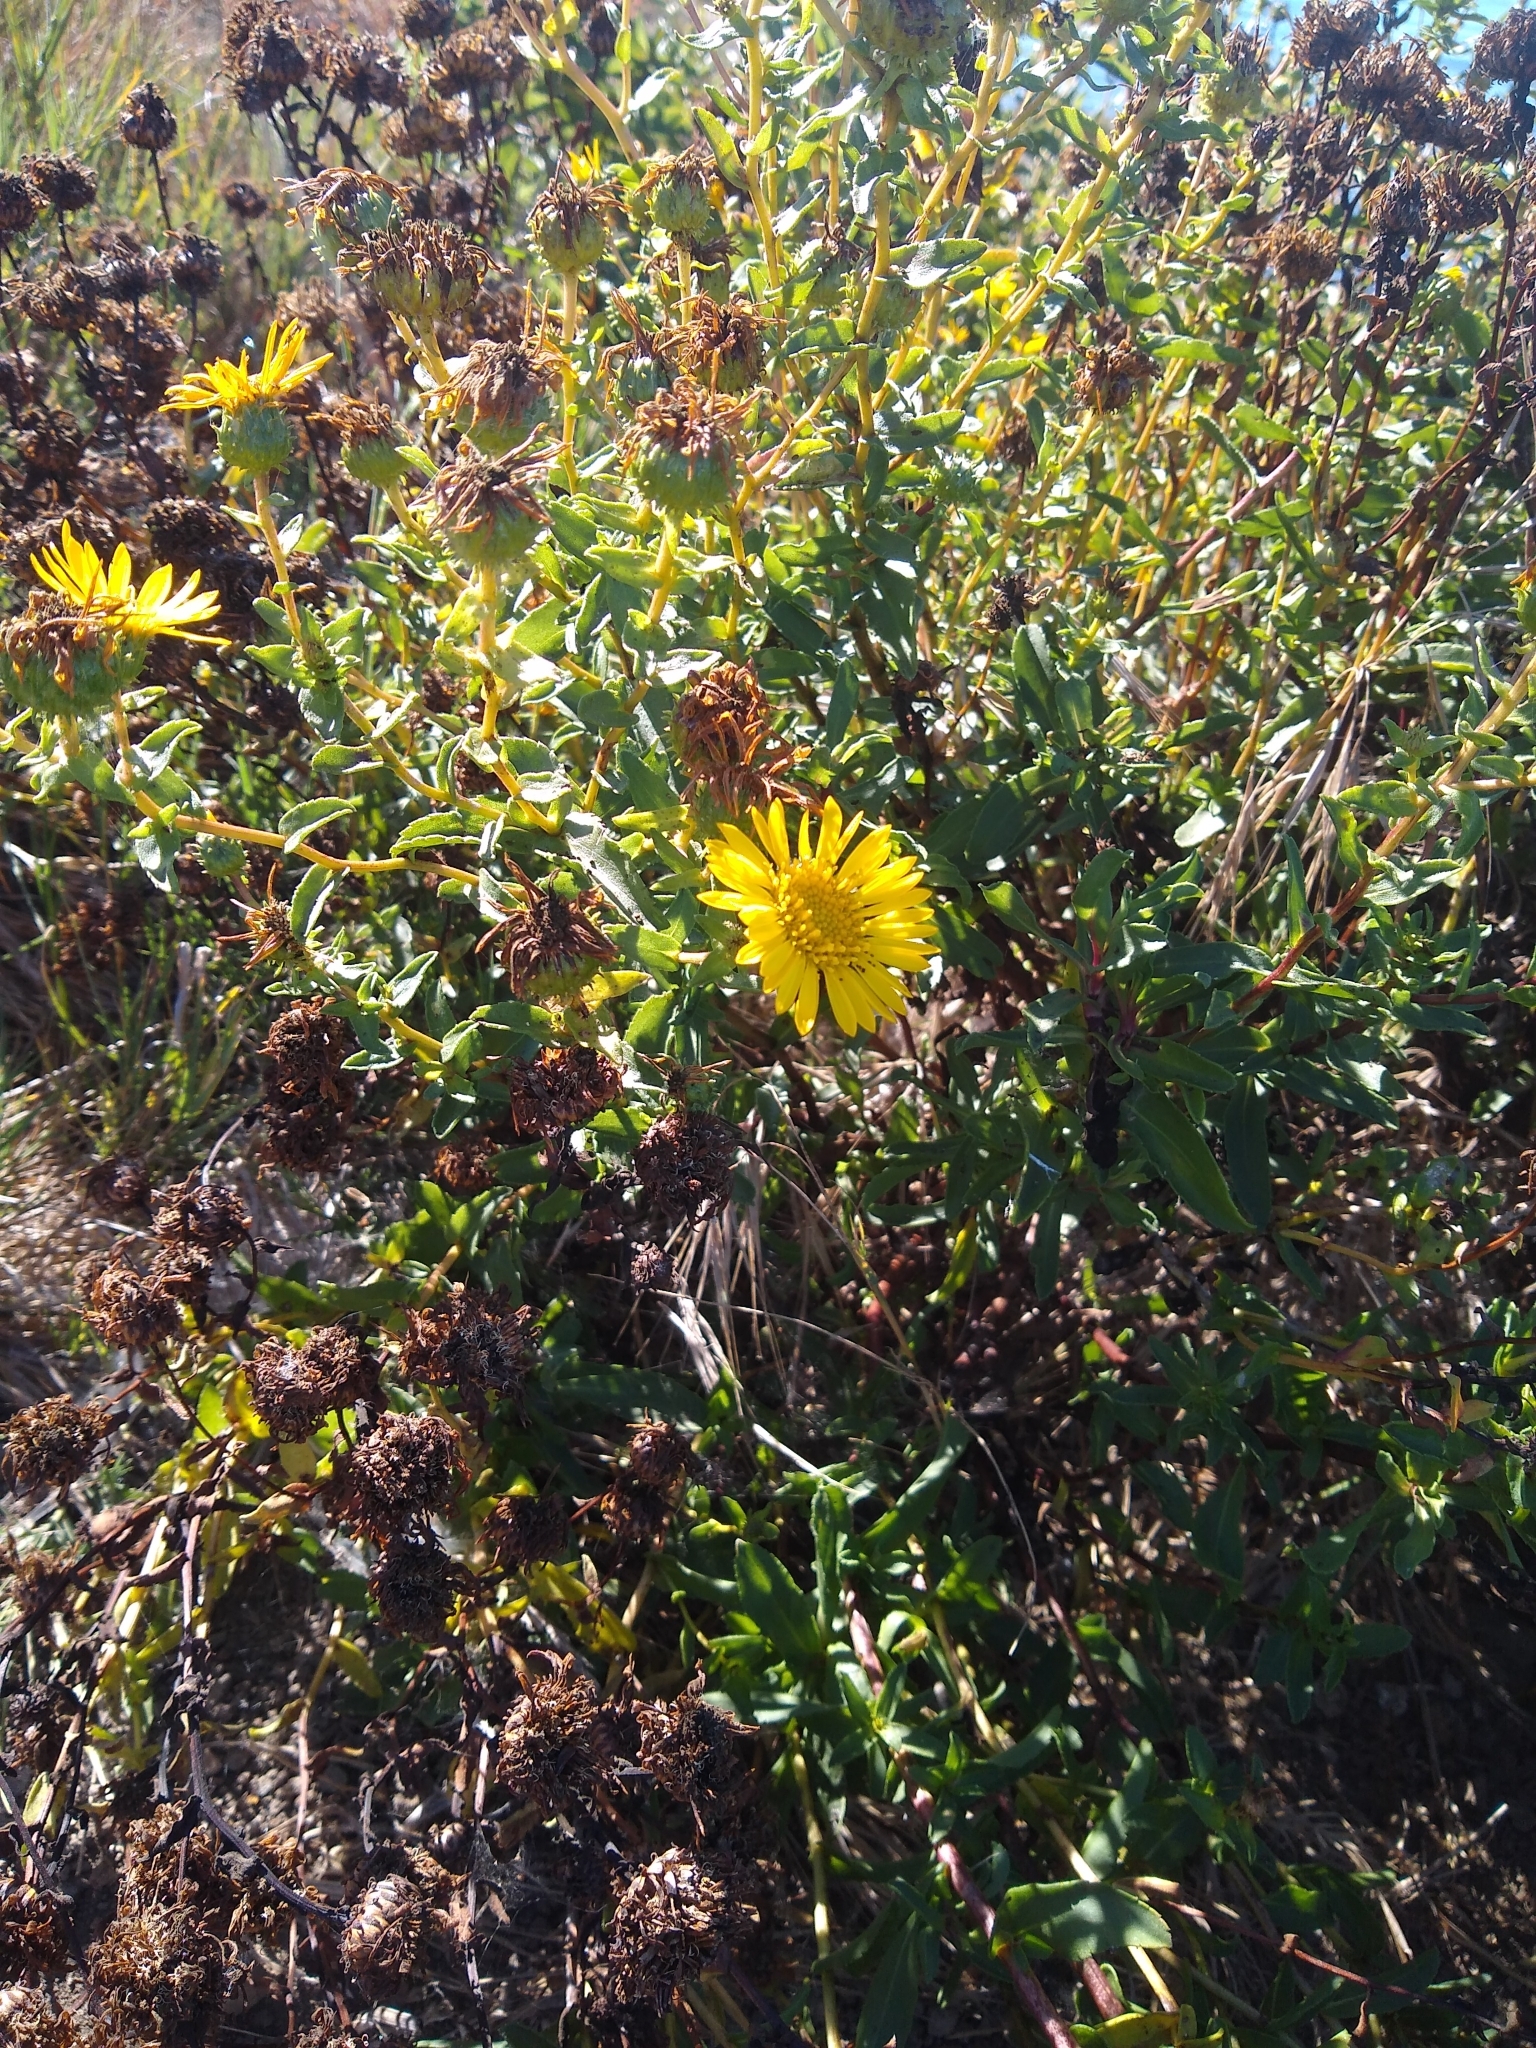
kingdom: Plantae
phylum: Tracheophyta
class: Magnoliopsida
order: Asterales
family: Asteraceae
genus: Grindelia
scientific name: Grindelia hirsutula
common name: Hairy gumweed
